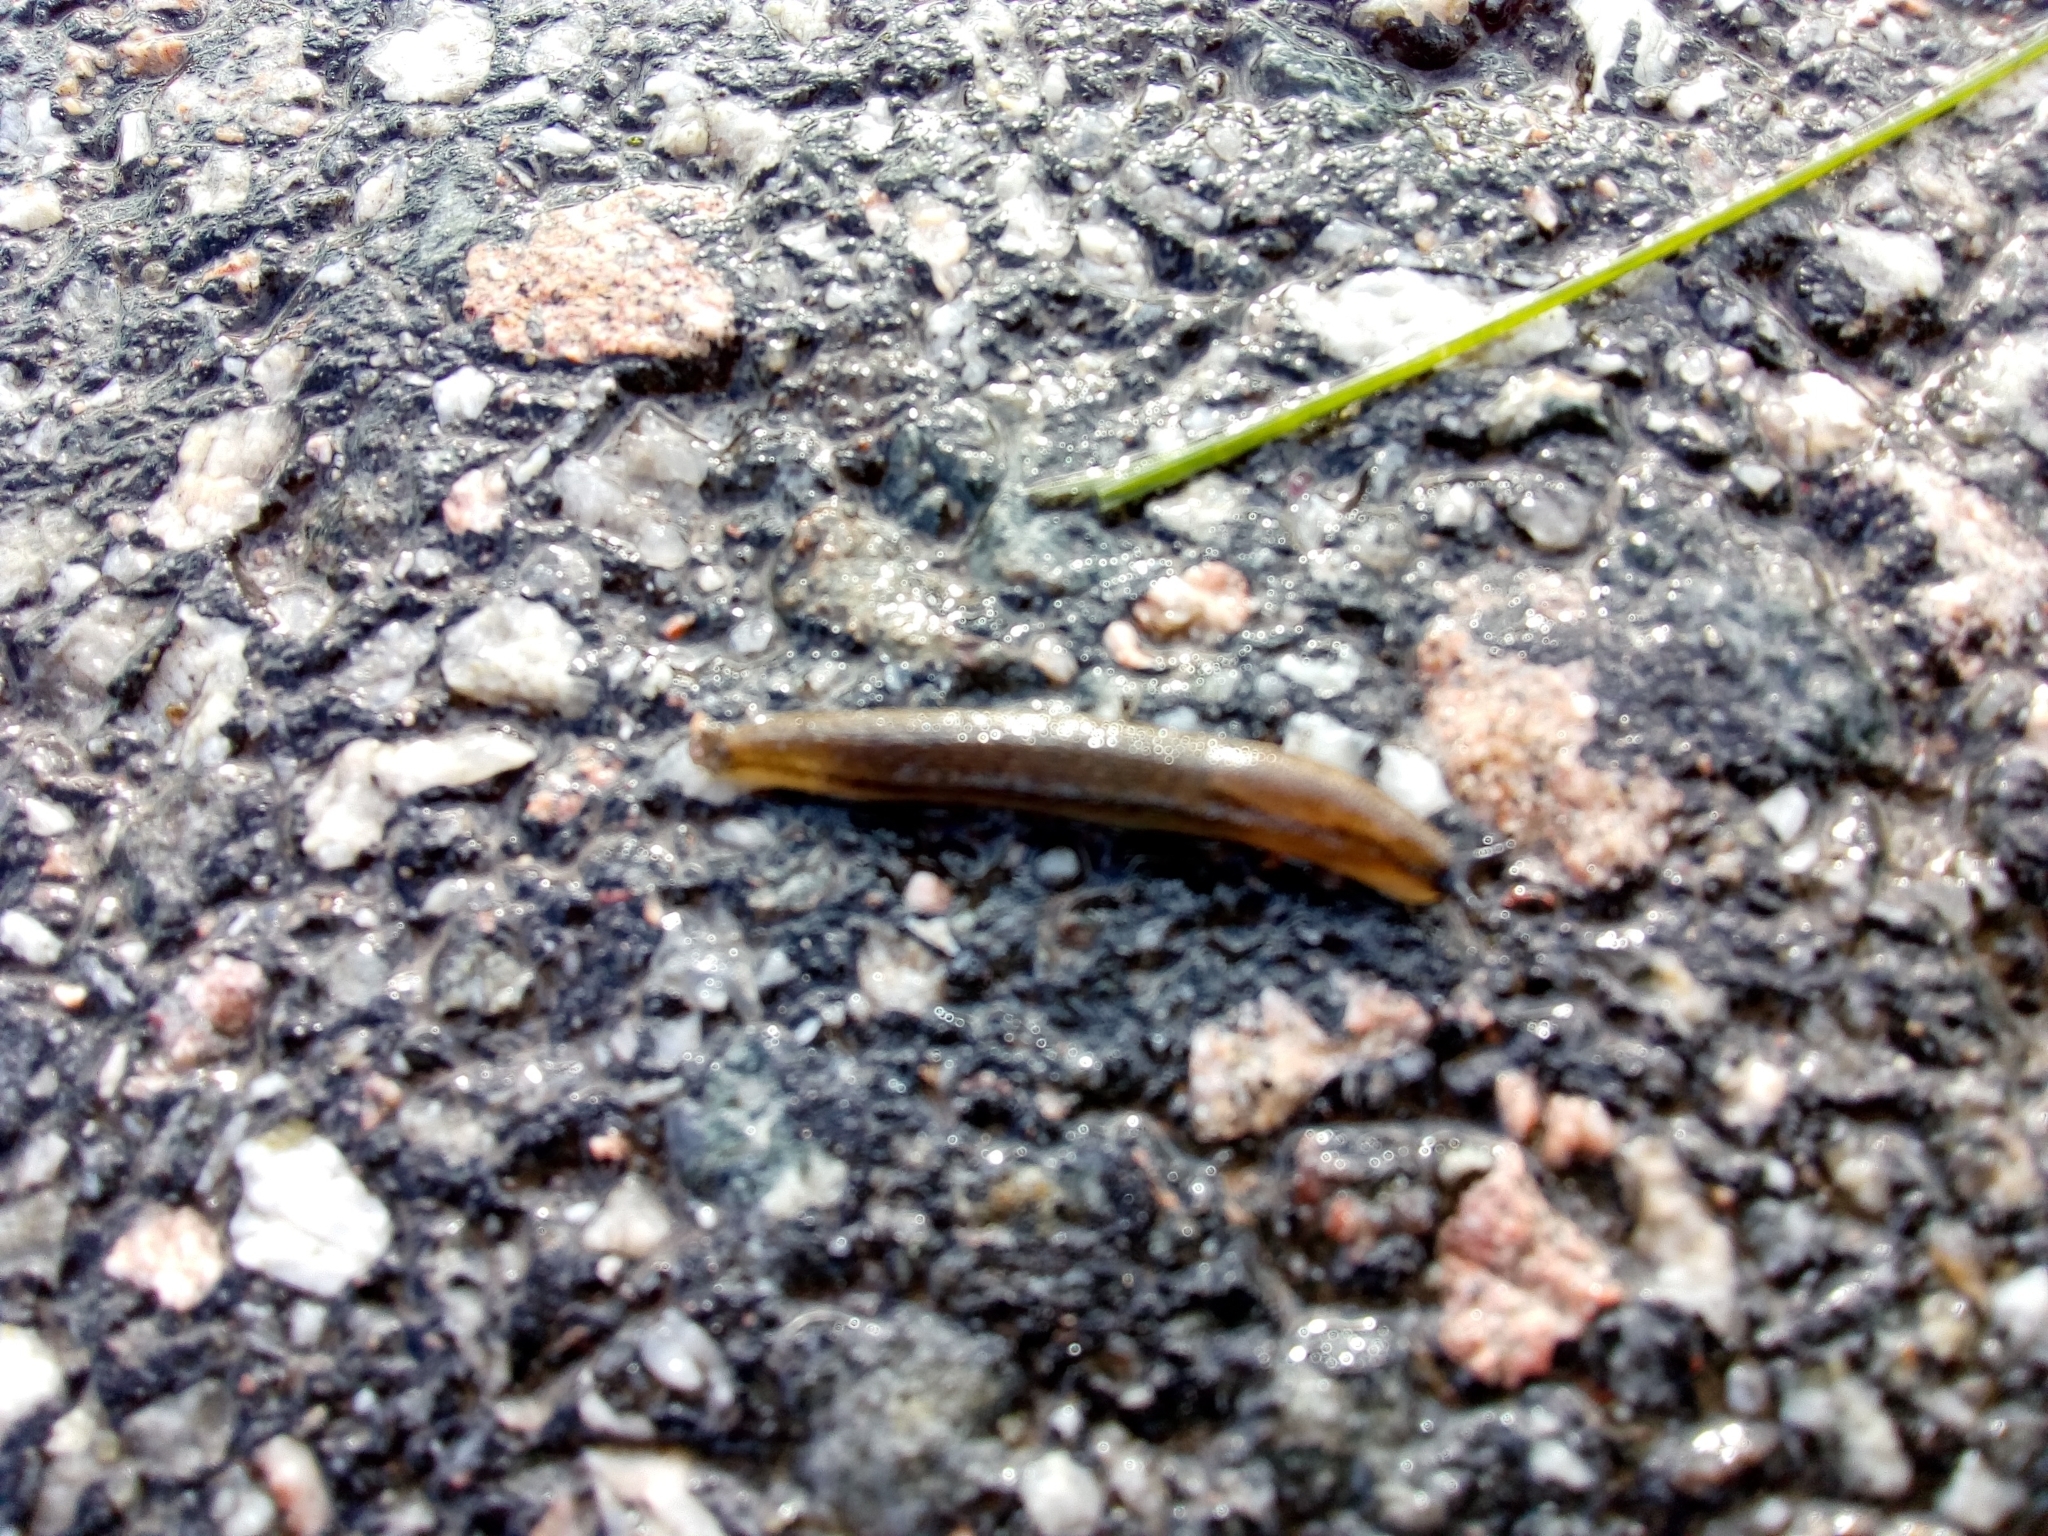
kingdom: Animalia
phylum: Mollusca
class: Gastropoda
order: Stylommatophora
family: Arionidae
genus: Arion
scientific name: Arion fuscus
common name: Northern dusky slug
